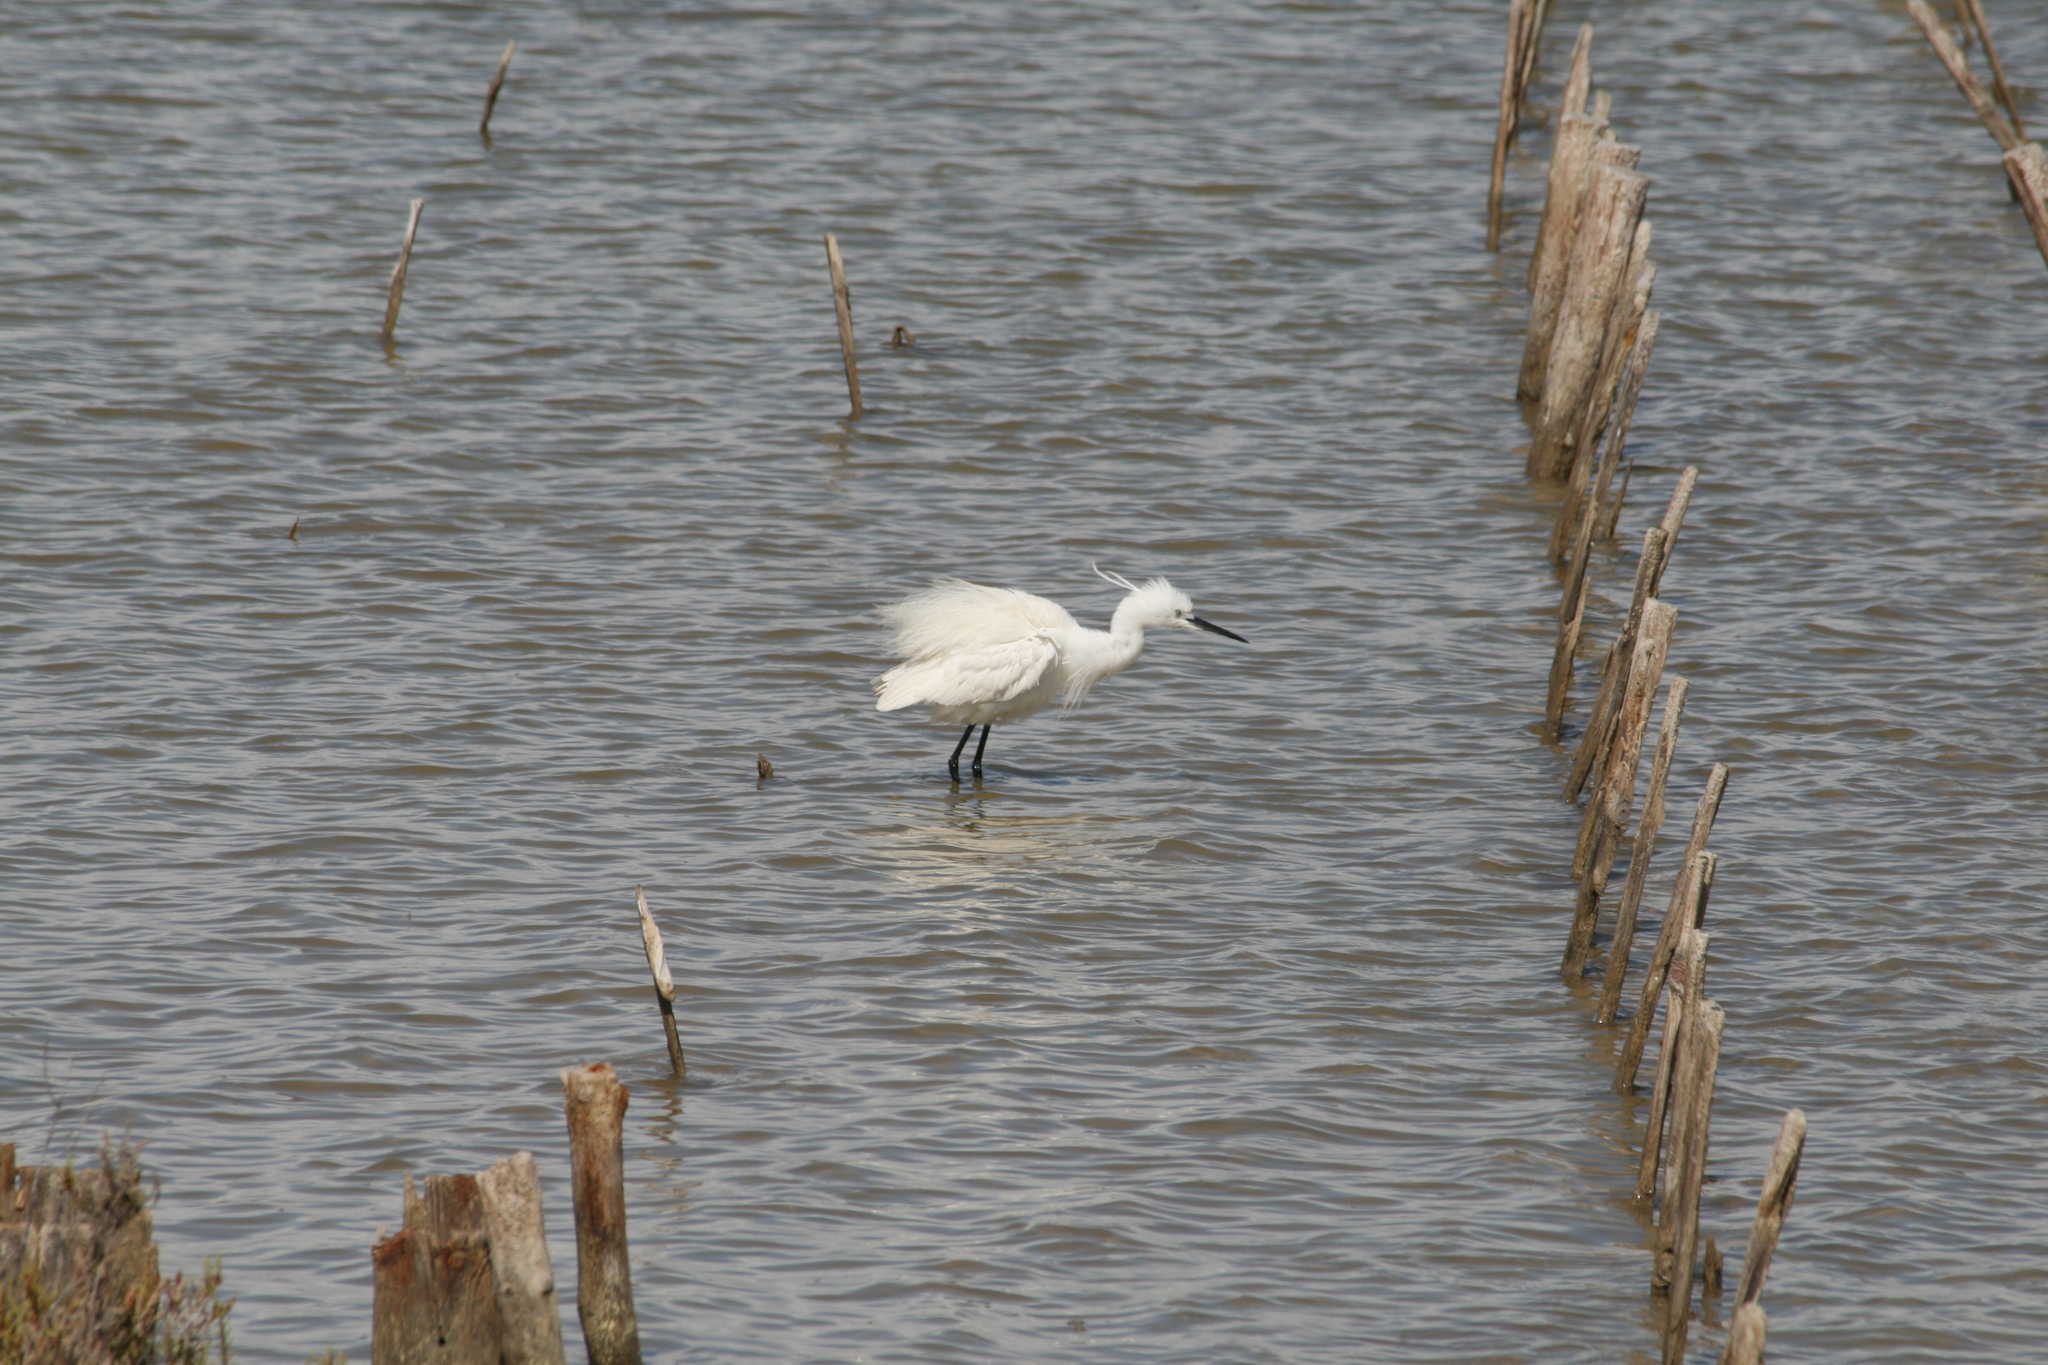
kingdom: Animalia
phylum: Chordata
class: Aves
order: Pelecaniformes
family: Ardeidae
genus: Egretta
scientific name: Egretta garzetta
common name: Little egret
